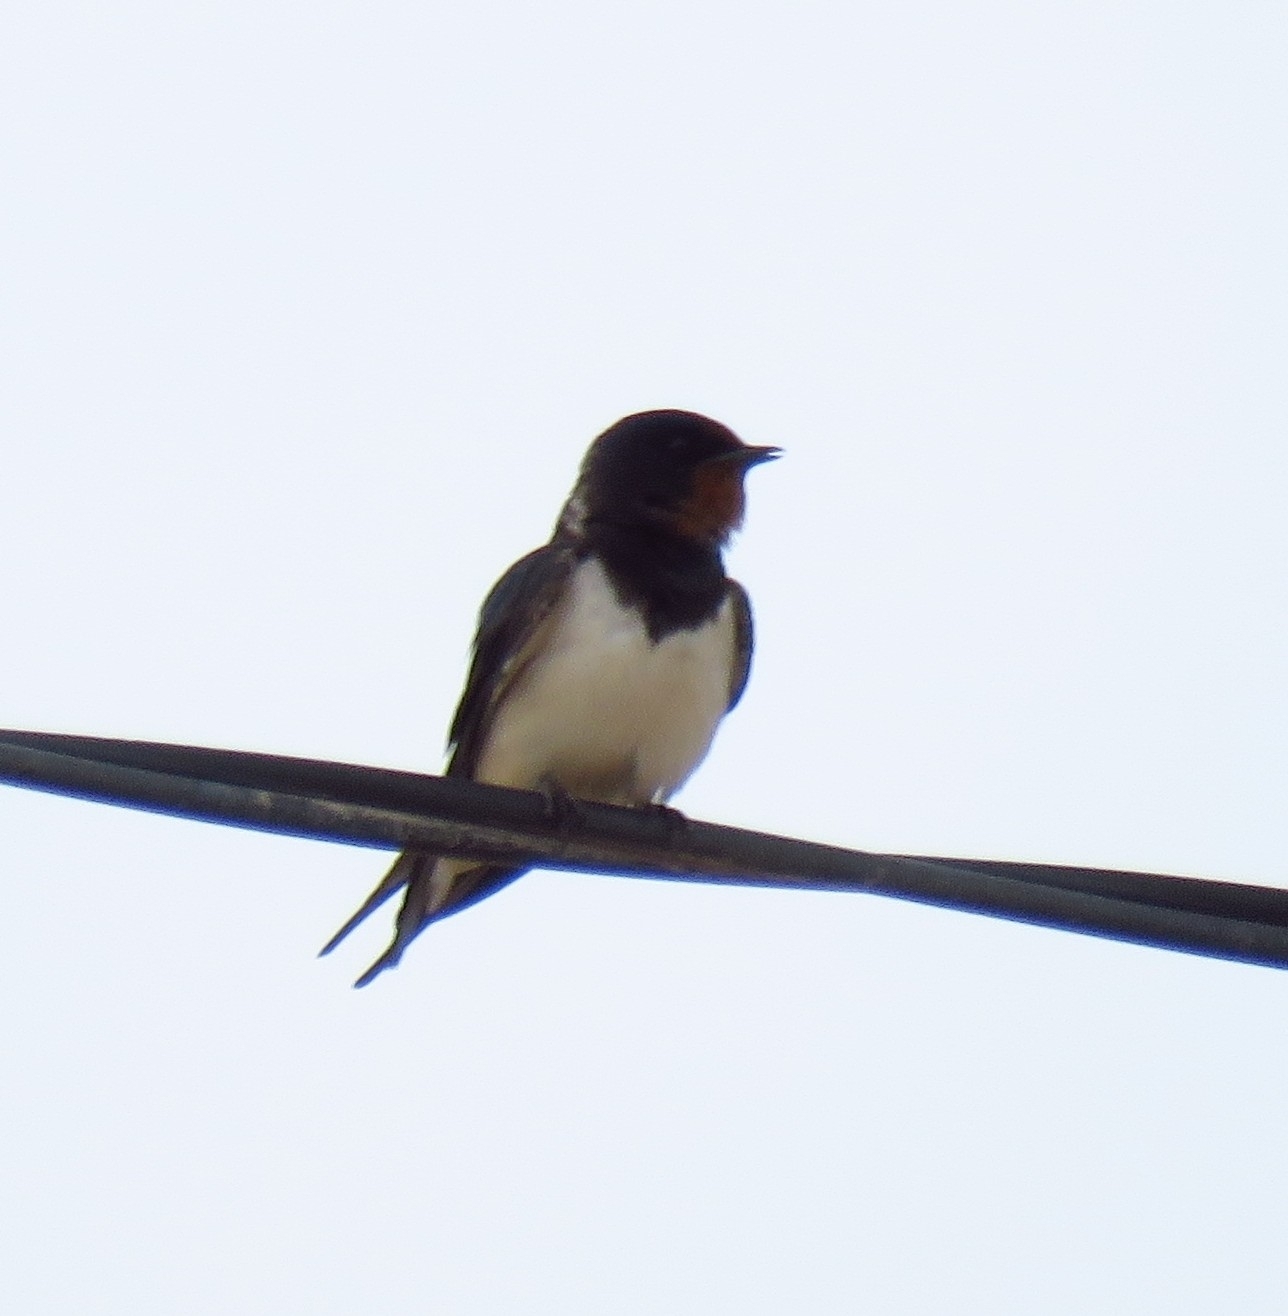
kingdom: Animalia
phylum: Chordata
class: Aves
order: Passeriformes
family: Hirundinidae
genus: Hirundo
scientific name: Hirundo rustica
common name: Barn swallow
